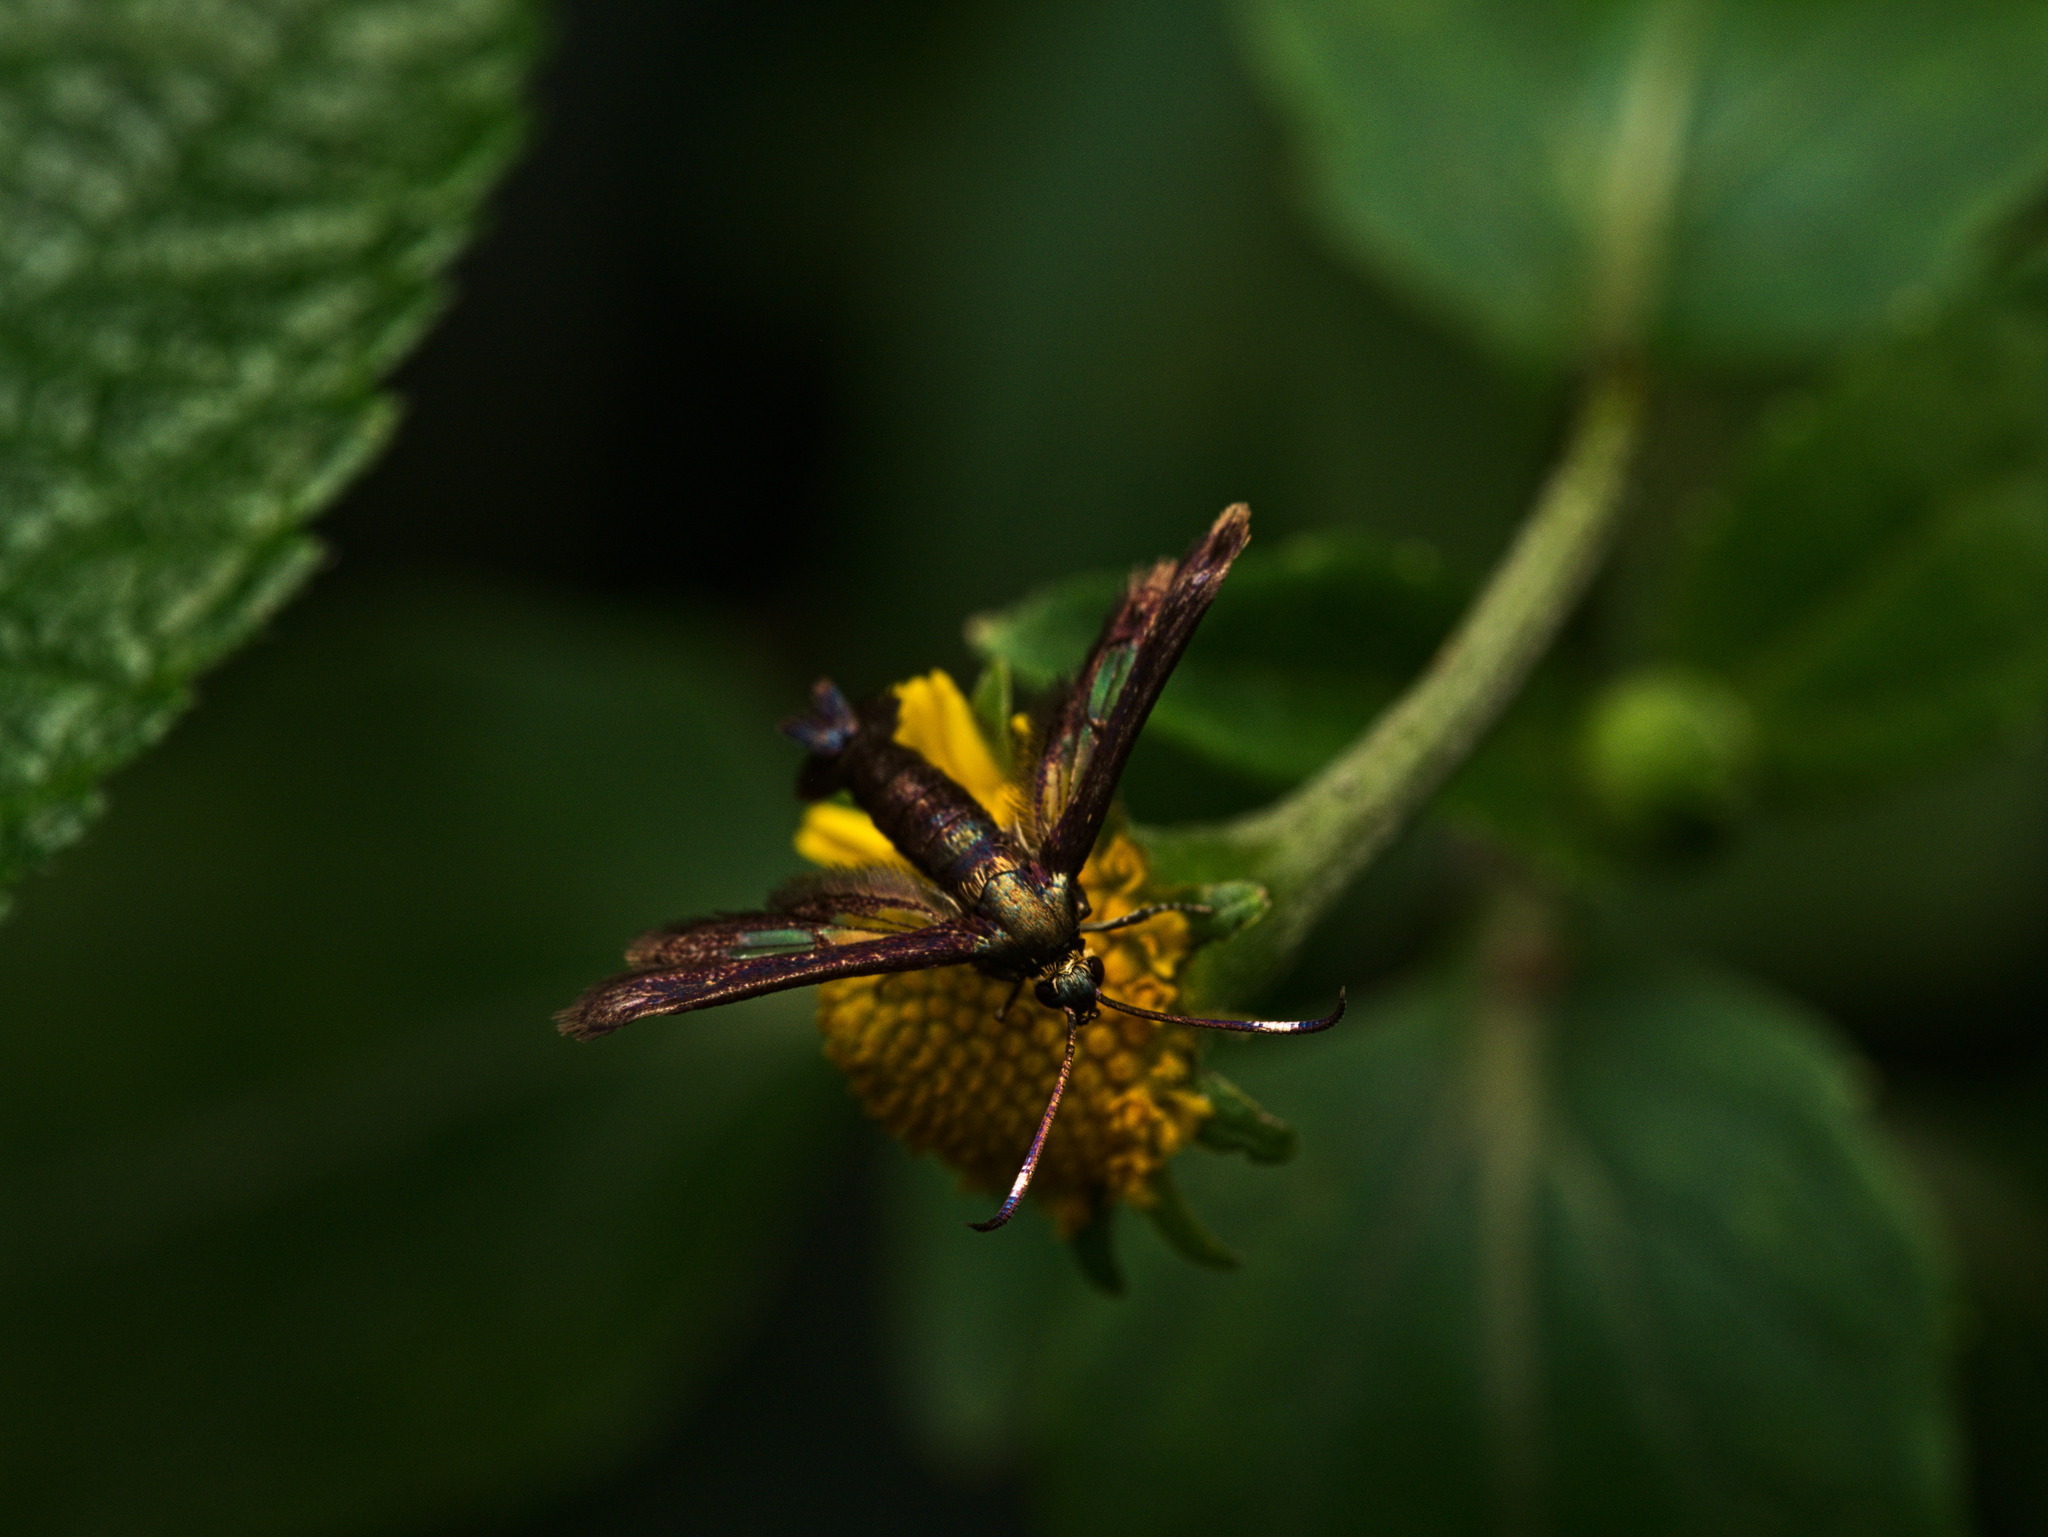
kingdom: Animalia
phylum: Arthropoda
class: Insecta
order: Lepidoptera
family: Sesiidae
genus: Synanthedon
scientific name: Synanthedon hela
